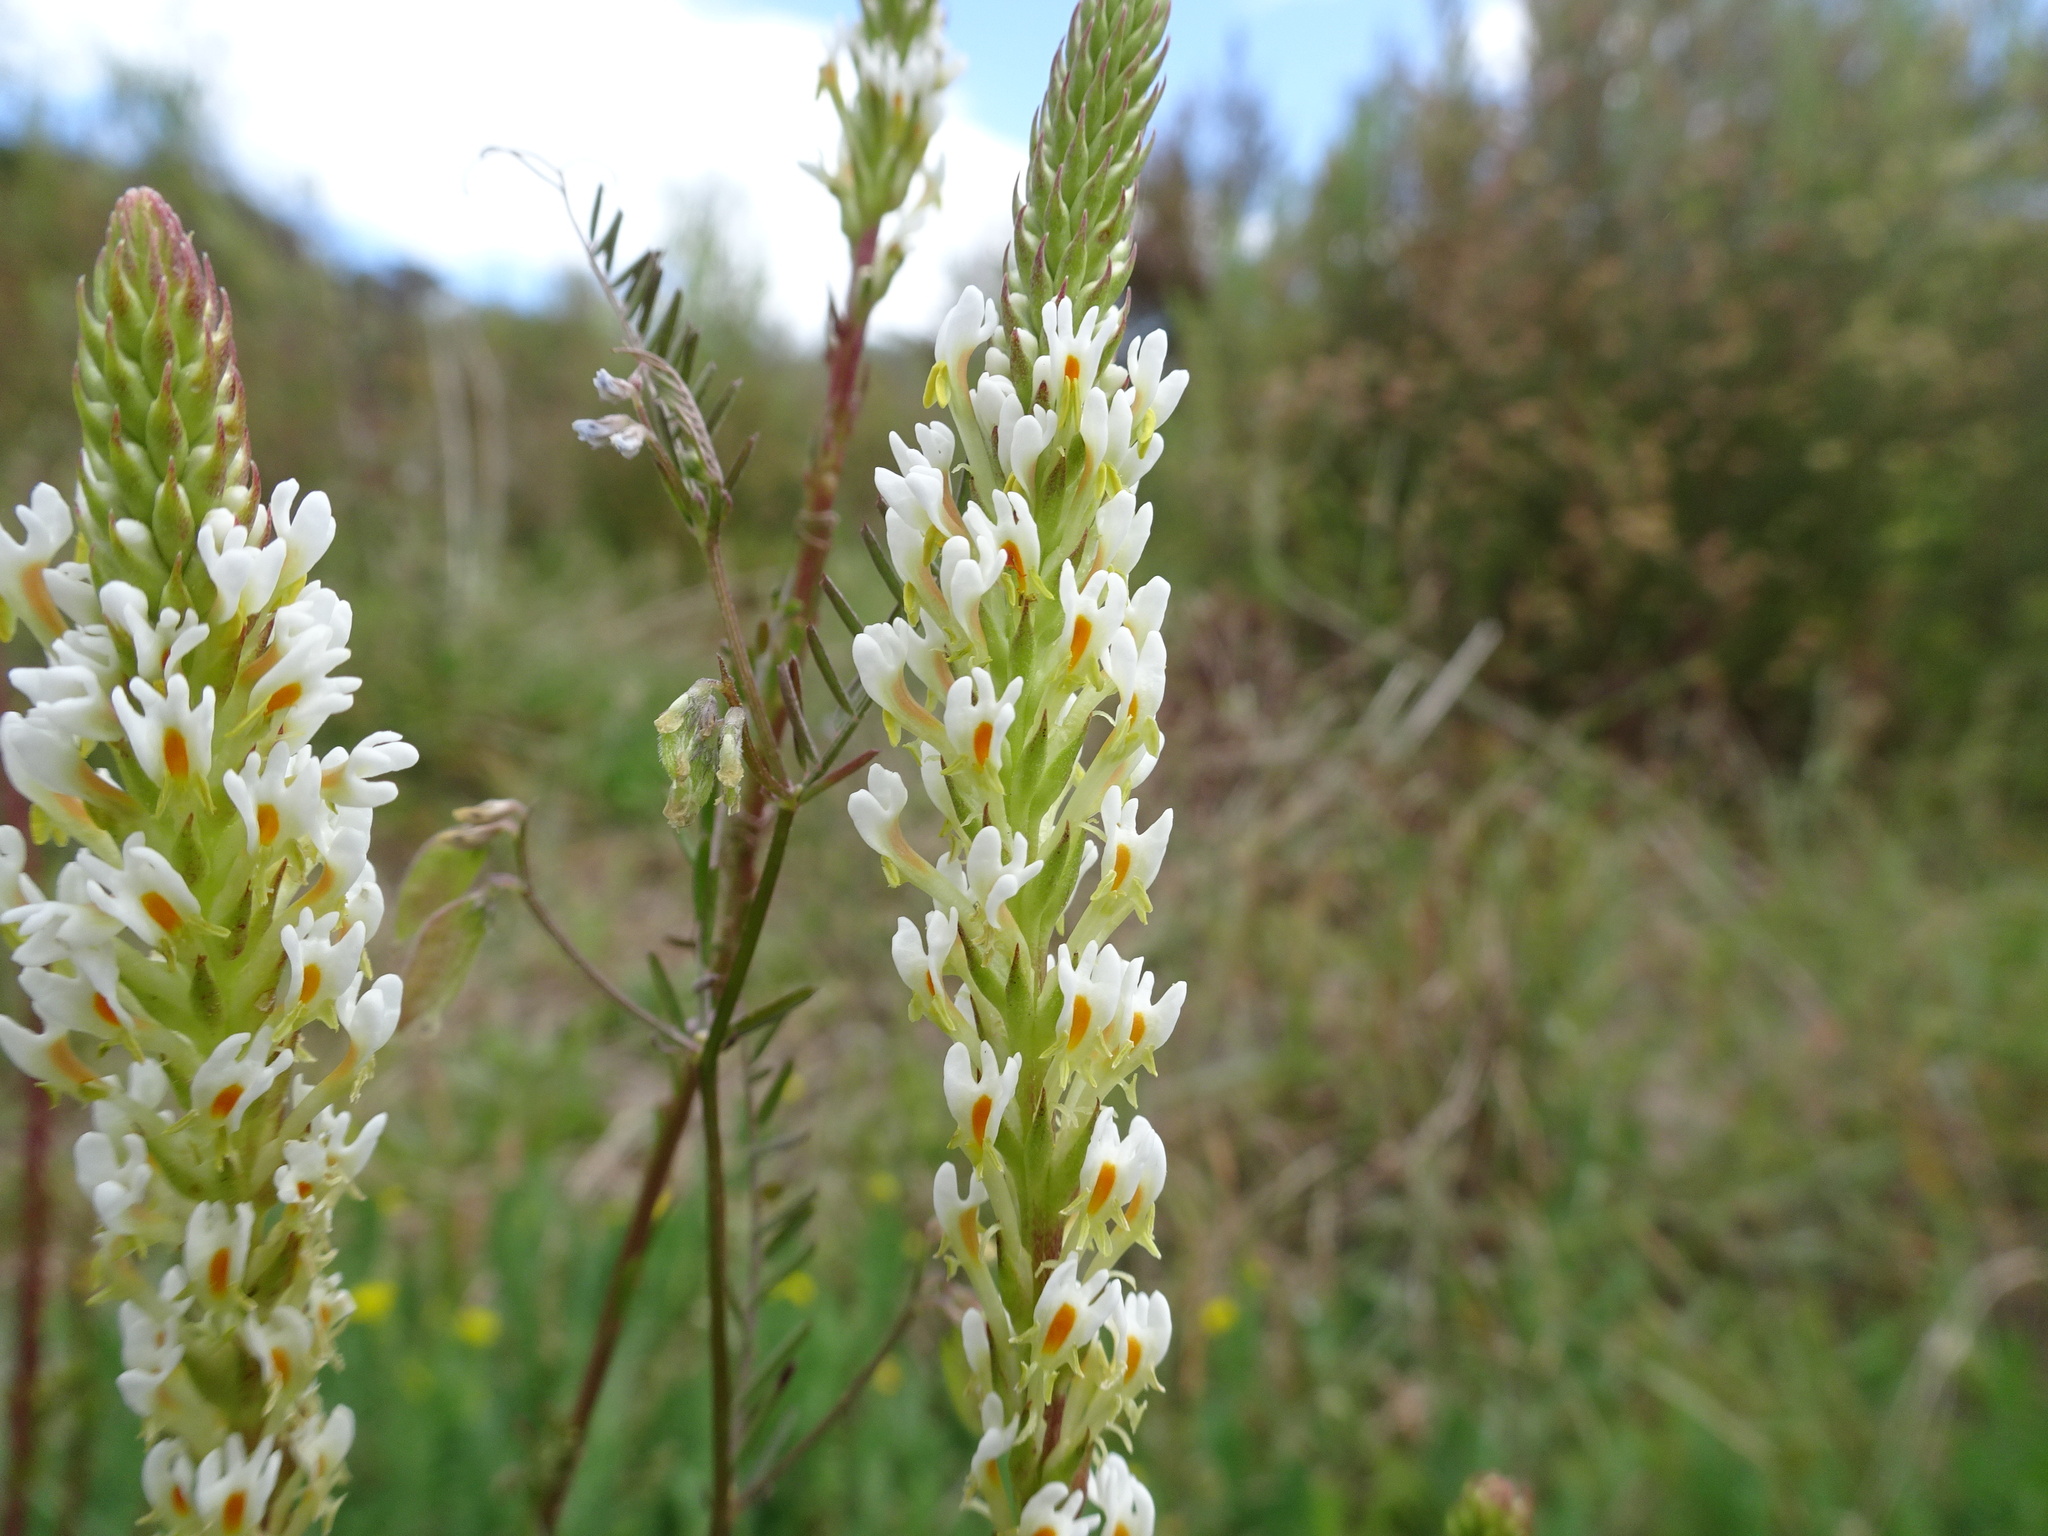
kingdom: Plantae
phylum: Tracheophyta
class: Magnoliopsida
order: Lamiales
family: Scrophulariaceae
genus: Hebenstretia
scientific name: Hebenstretia integrifolia
